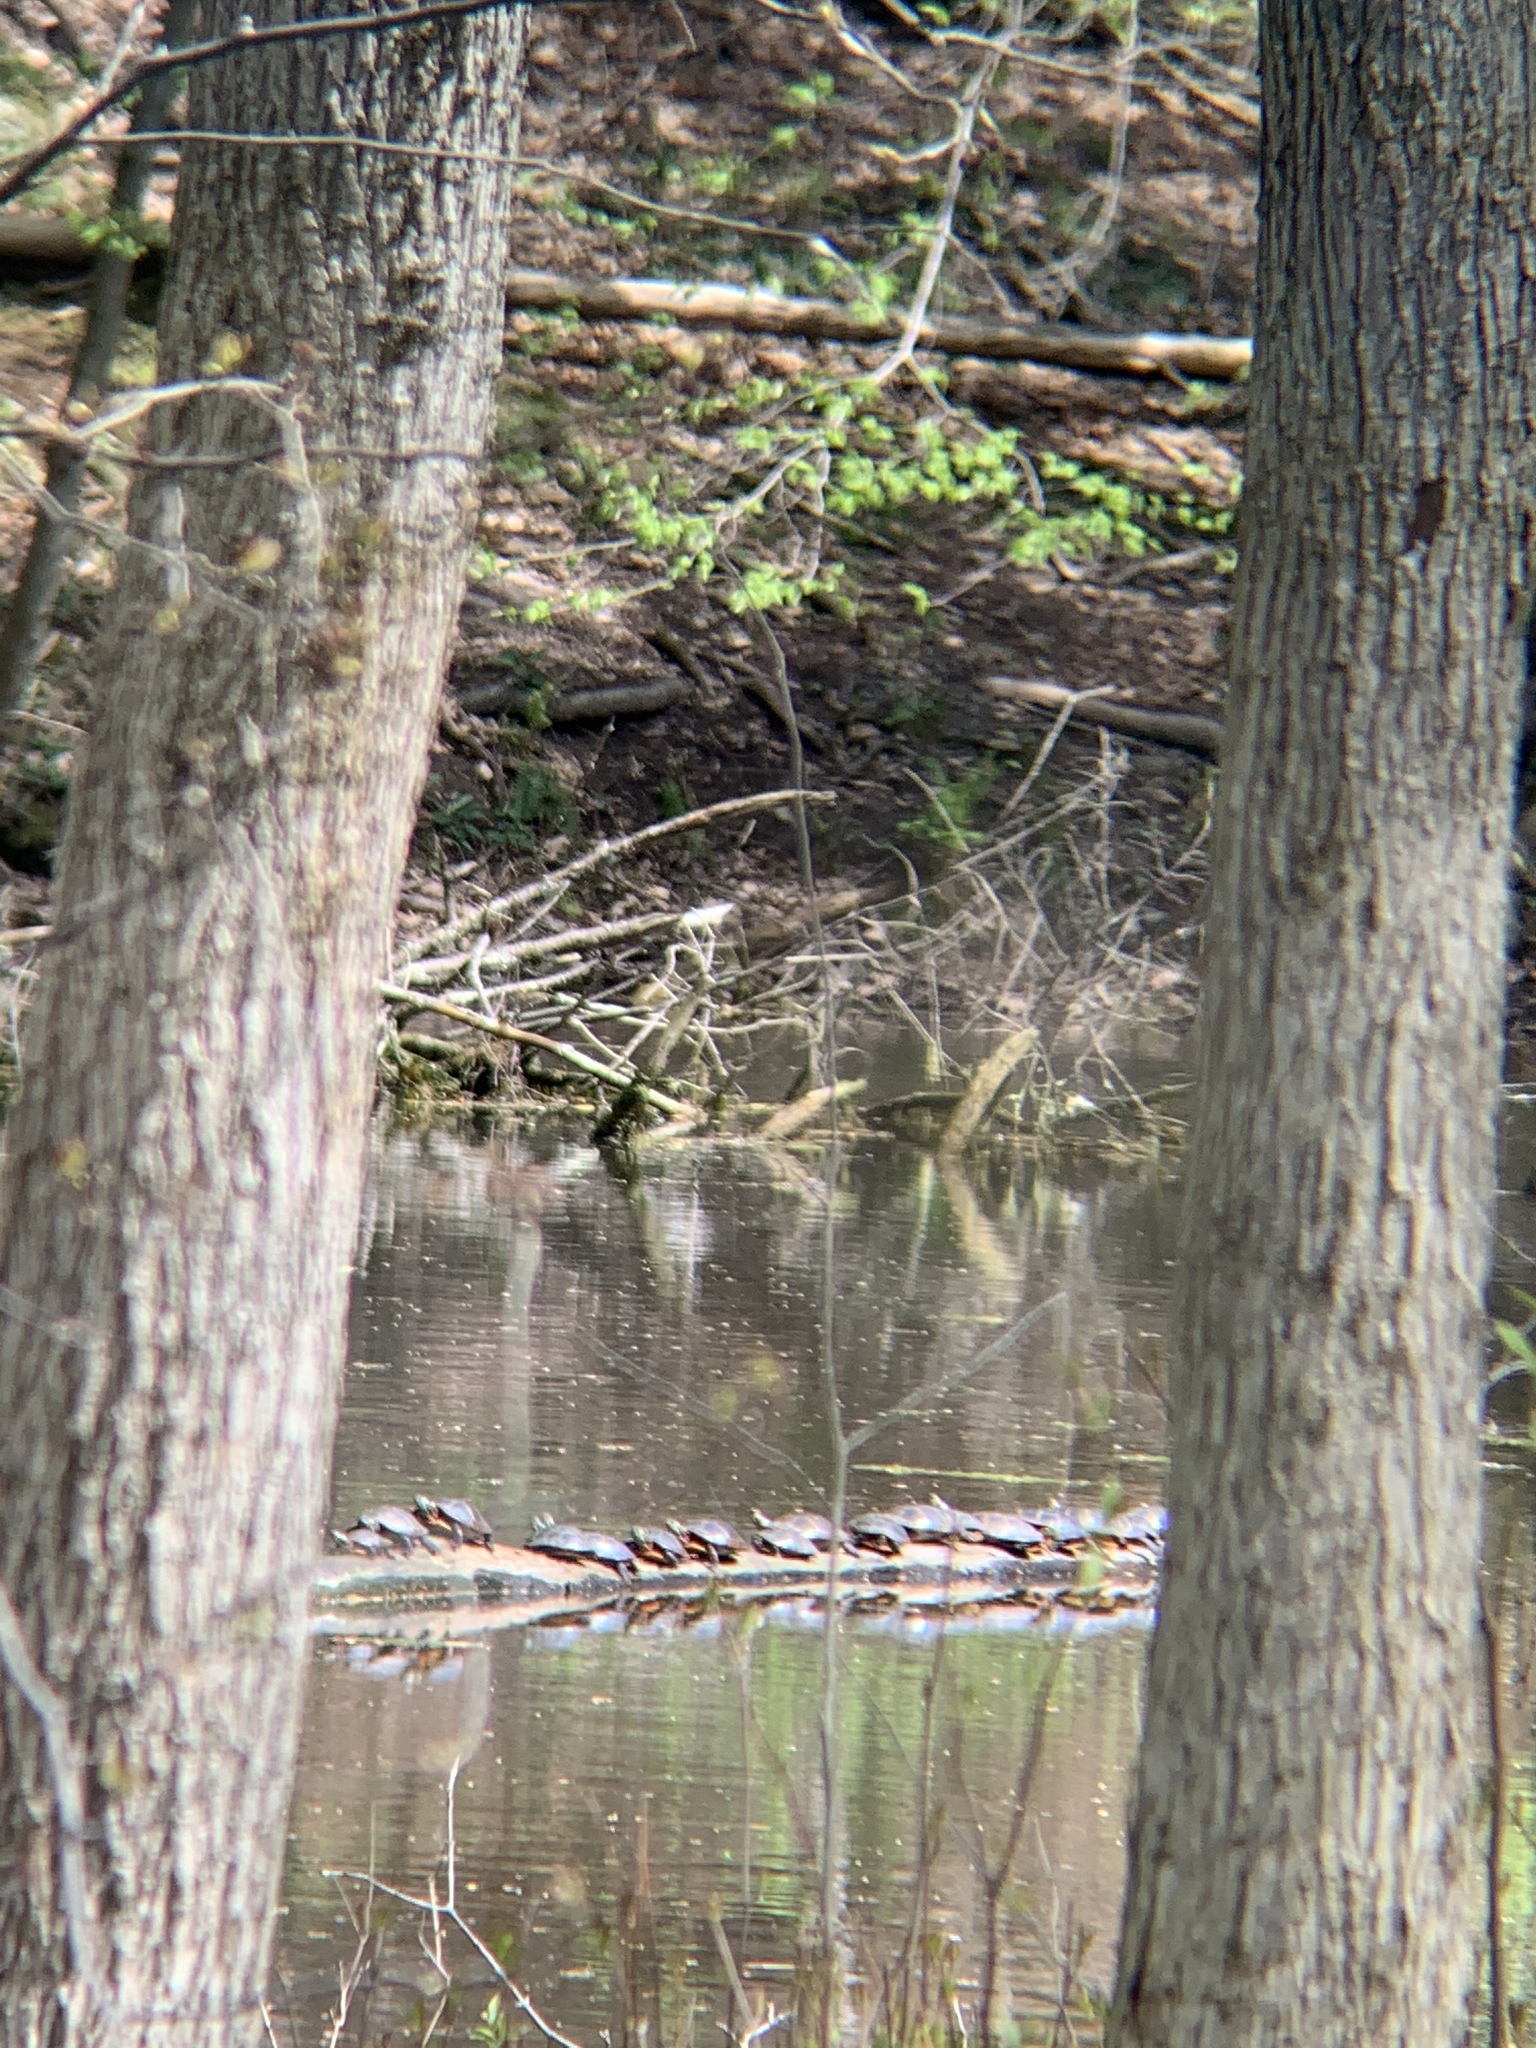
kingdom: Animalia
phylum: Chordata
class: Testudines
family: Emydidae
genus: Chrysemys
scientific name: Chrysemys picta
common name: Painted turtle
